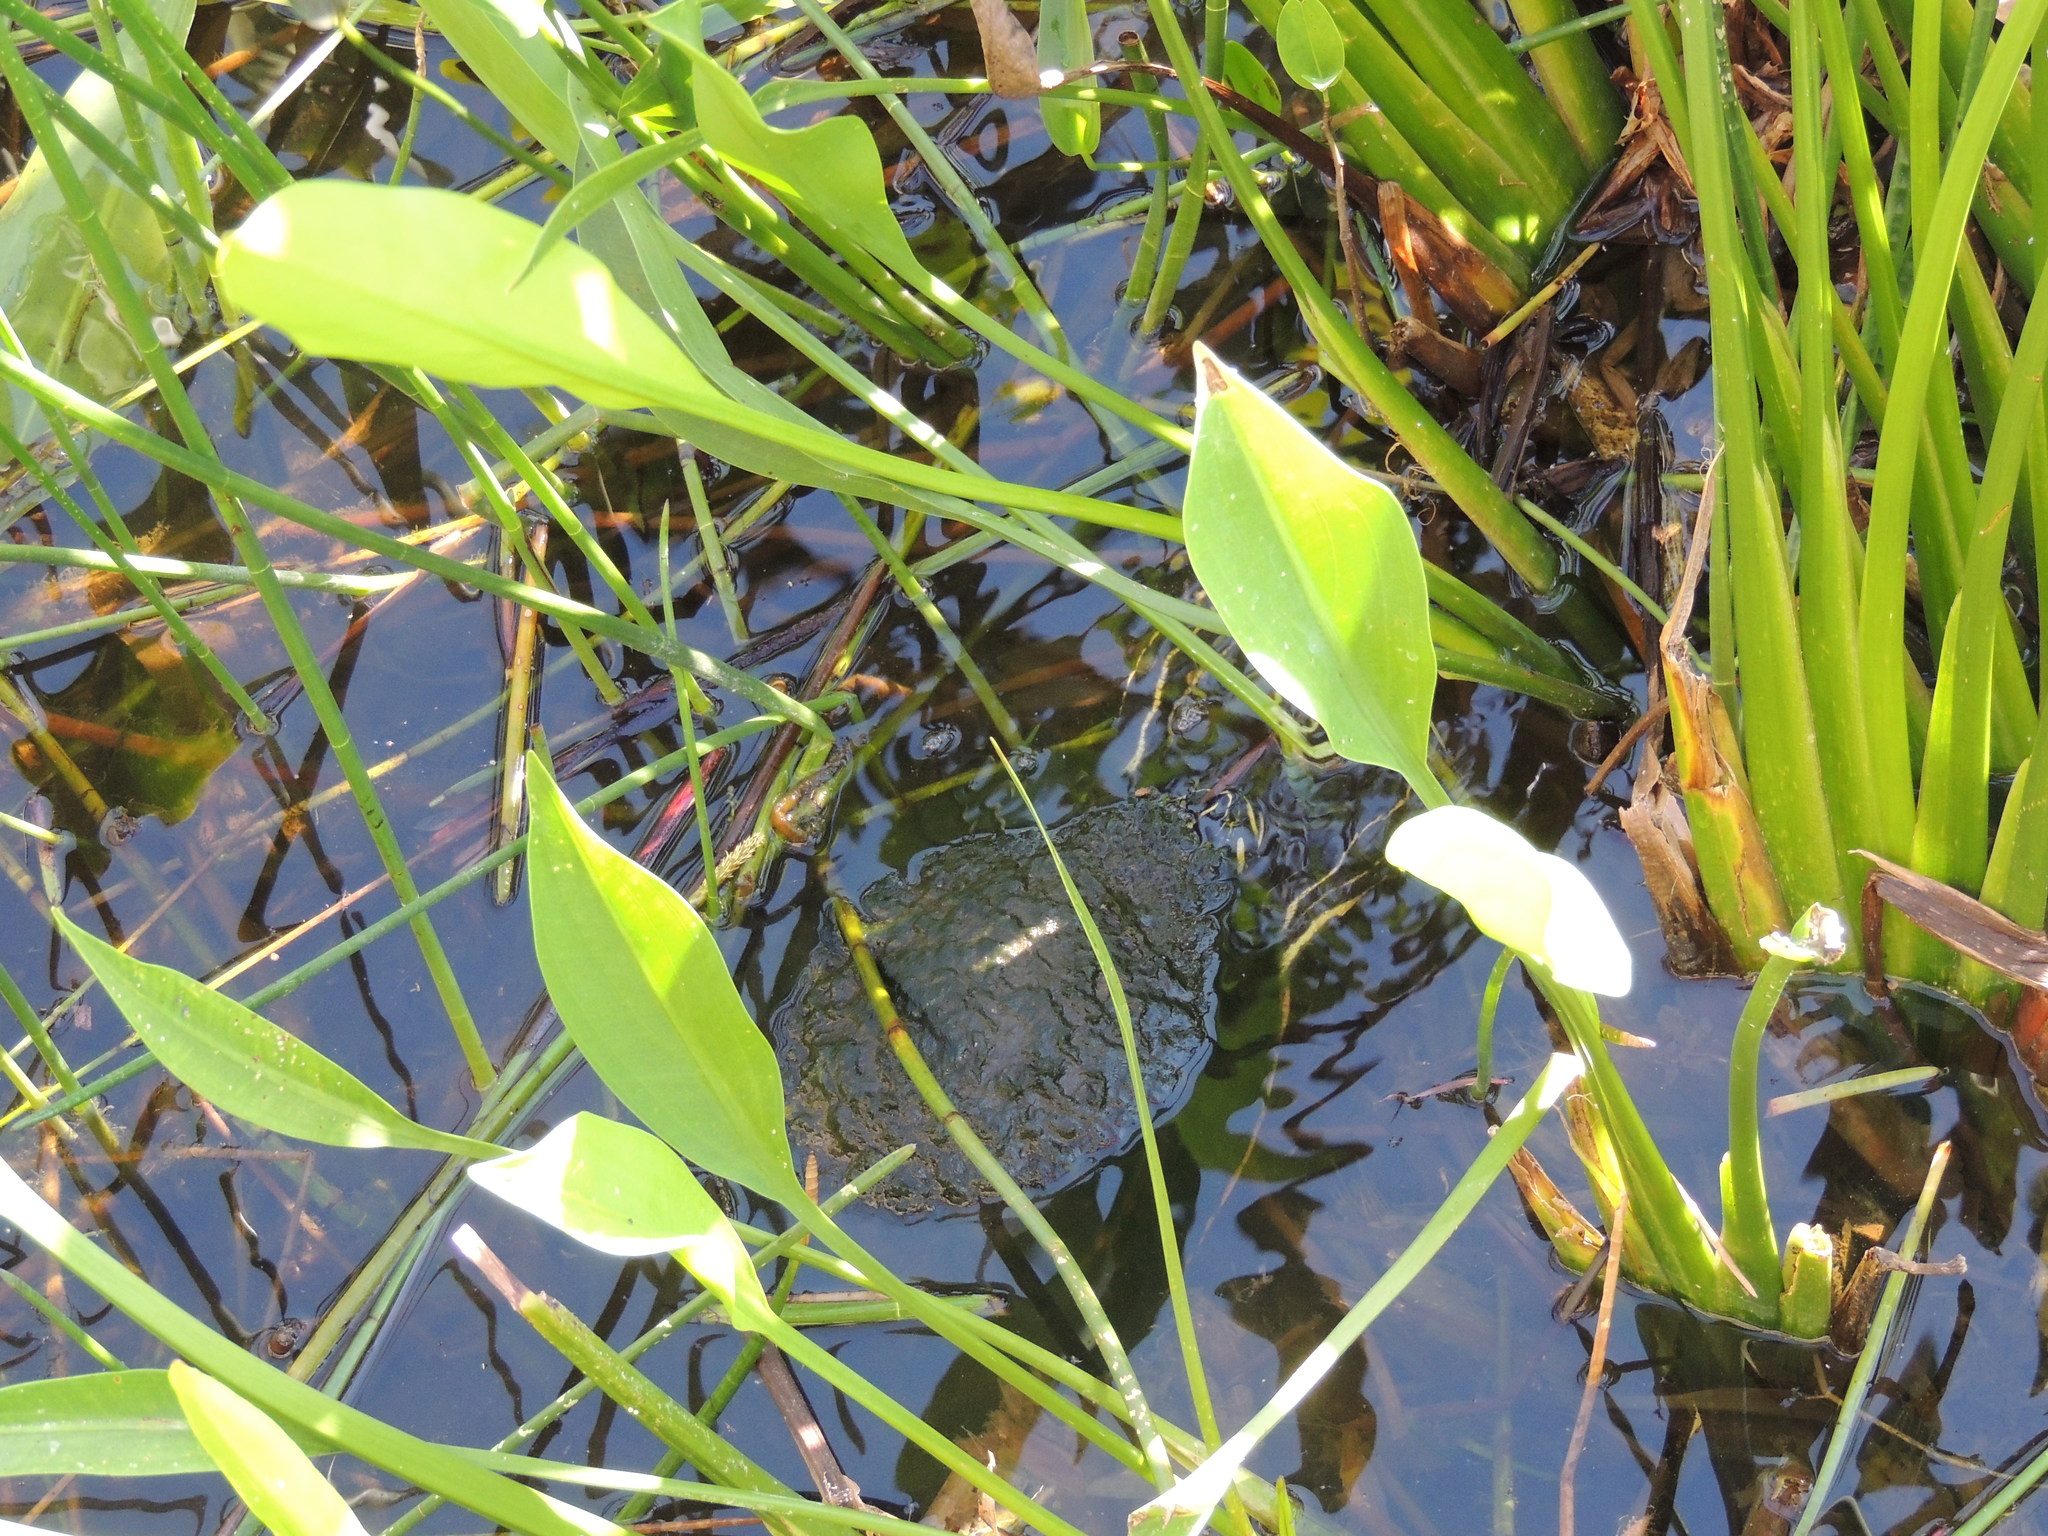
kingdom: Animalia
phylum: Chordata
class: Testudines
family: Emydidae
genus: Pseudemys
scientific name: Pseudemys peninsularis
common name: Peninsula cooter
